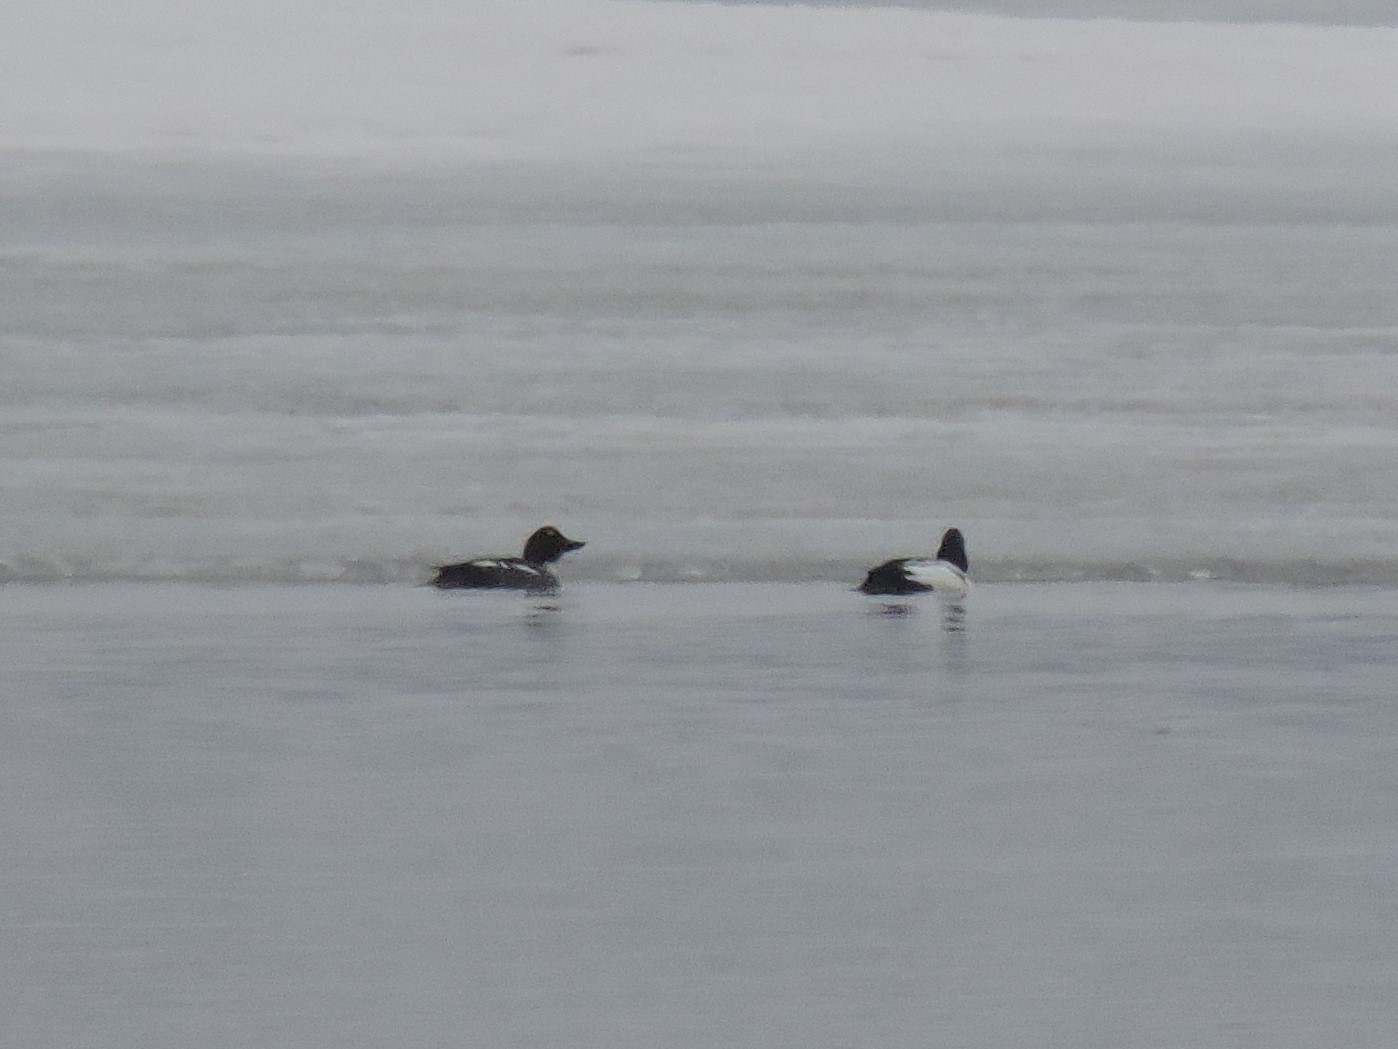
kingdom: Animalia
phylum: Chordata
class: Aves
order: Anseriformes
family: Anatidae
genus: Bucephala
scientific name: Bucephala clangula
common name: Common goldeneye
